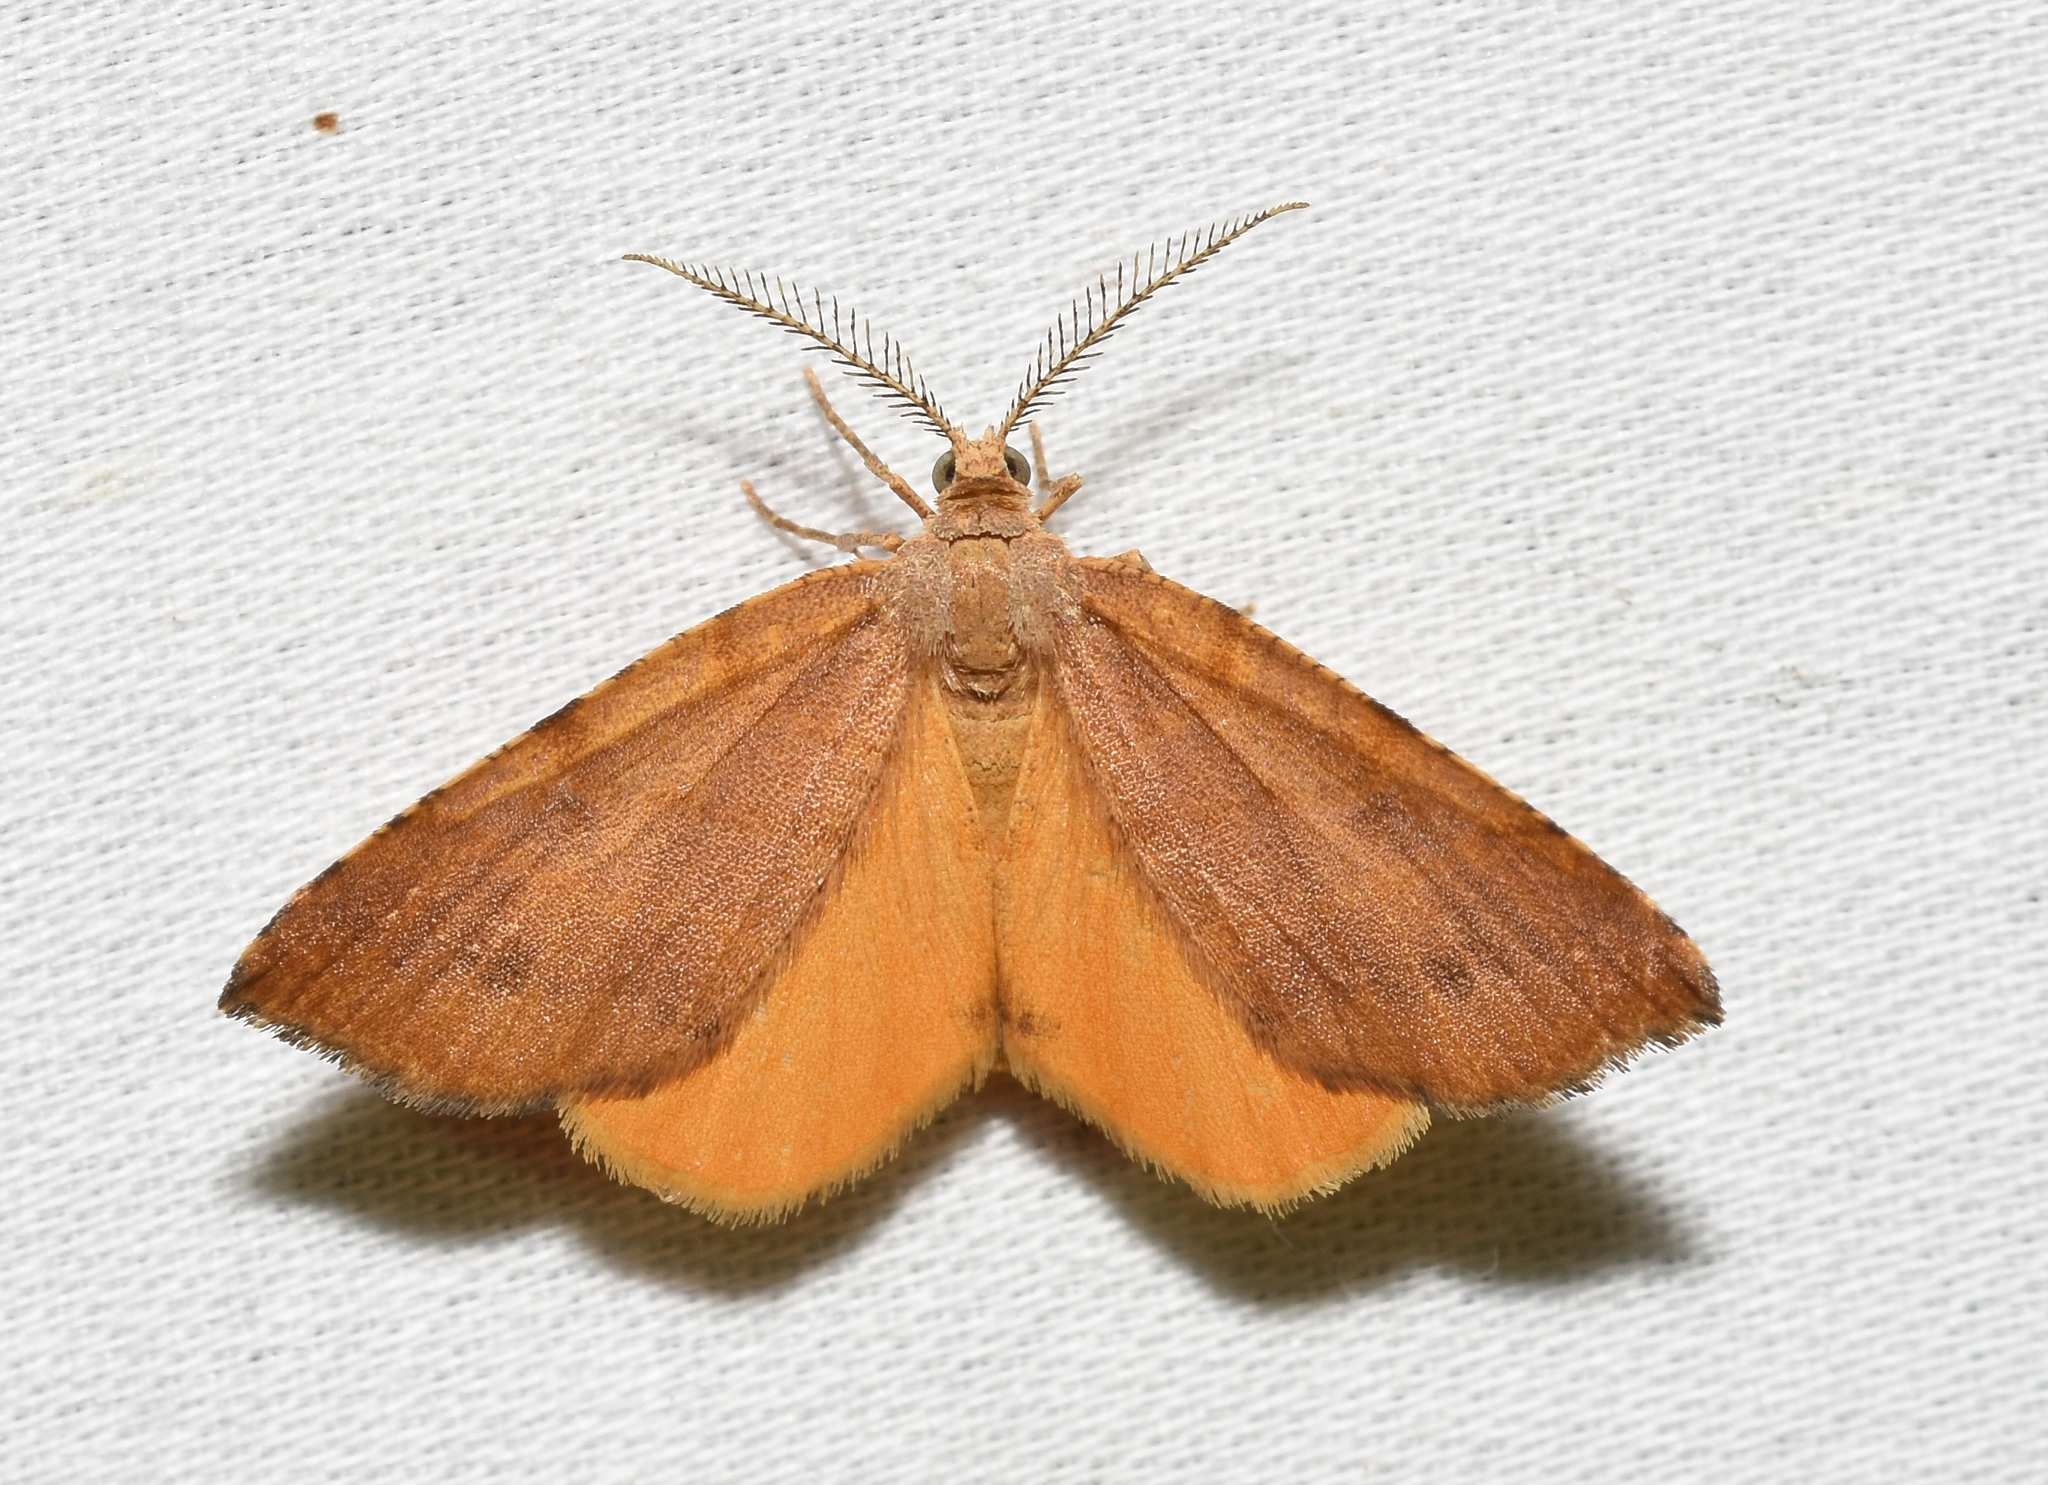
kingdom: Animalia
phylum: Arthropoda
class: Insecta
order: Lepidoptera
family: Geometridae
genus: Mellilla
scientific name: Mellilla xanthometata
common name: Orange wing moth
